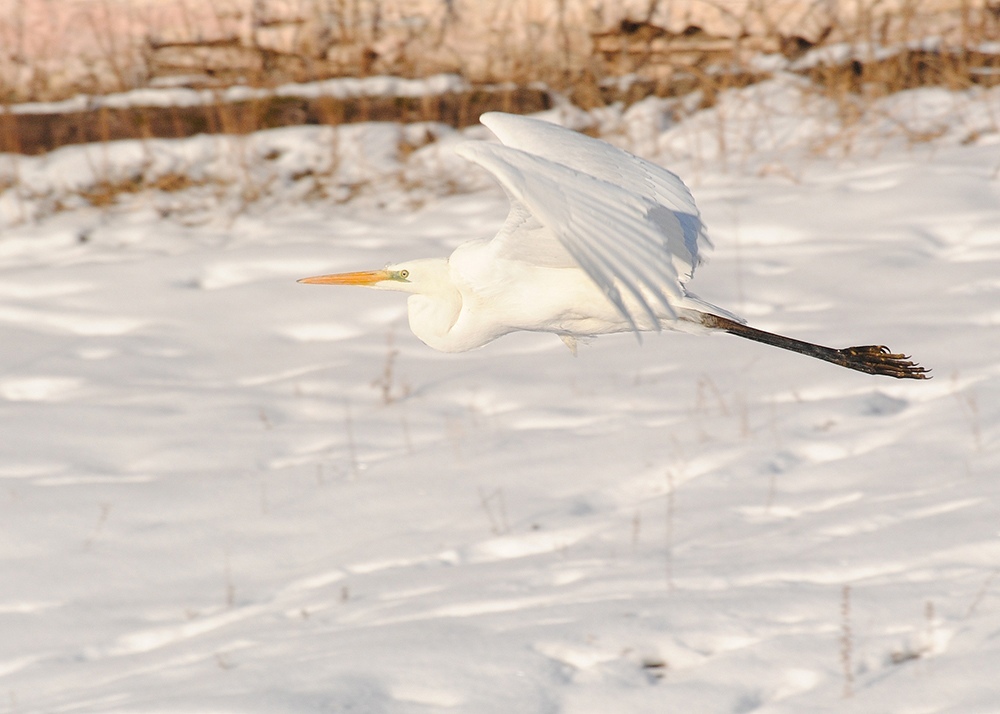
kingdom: Animalia
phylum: Chordata
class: Aves
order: Pelecaniformes
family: Ardeidae
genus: Ardea
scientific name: Ardea alba
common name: Great egret
